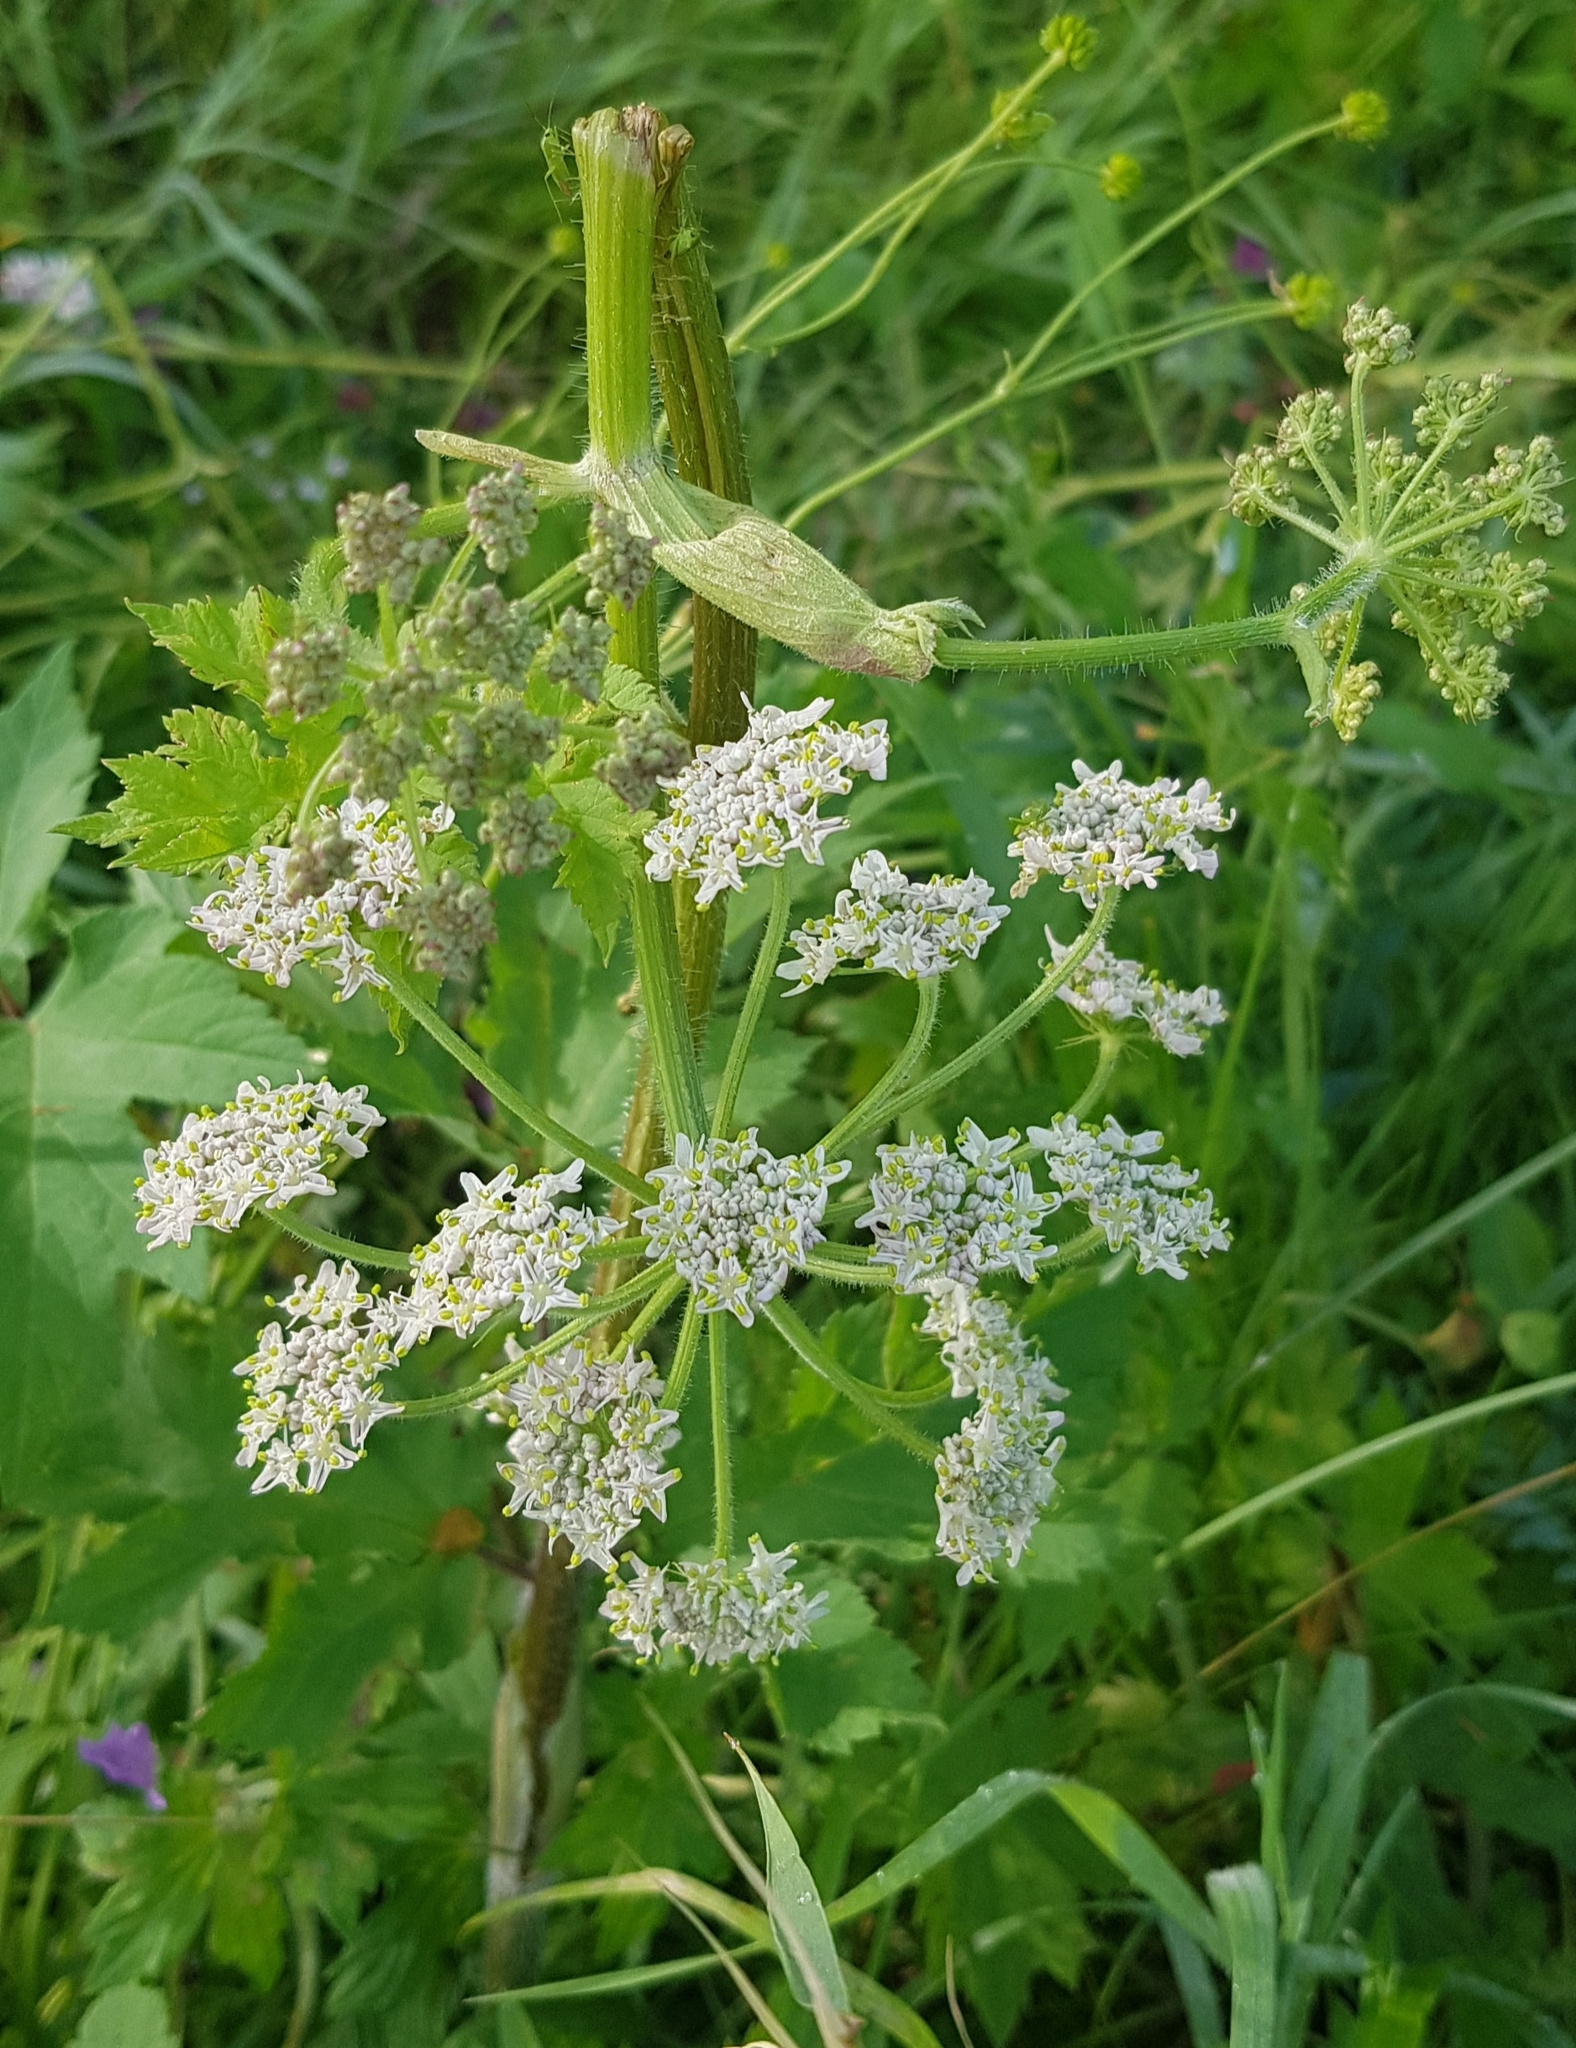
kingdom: Plantae
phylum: Tracheophyta
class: Magnoliopsida
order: Apiales
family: Apiaceae
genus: Heracleum
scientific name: Heracleum dissectum
